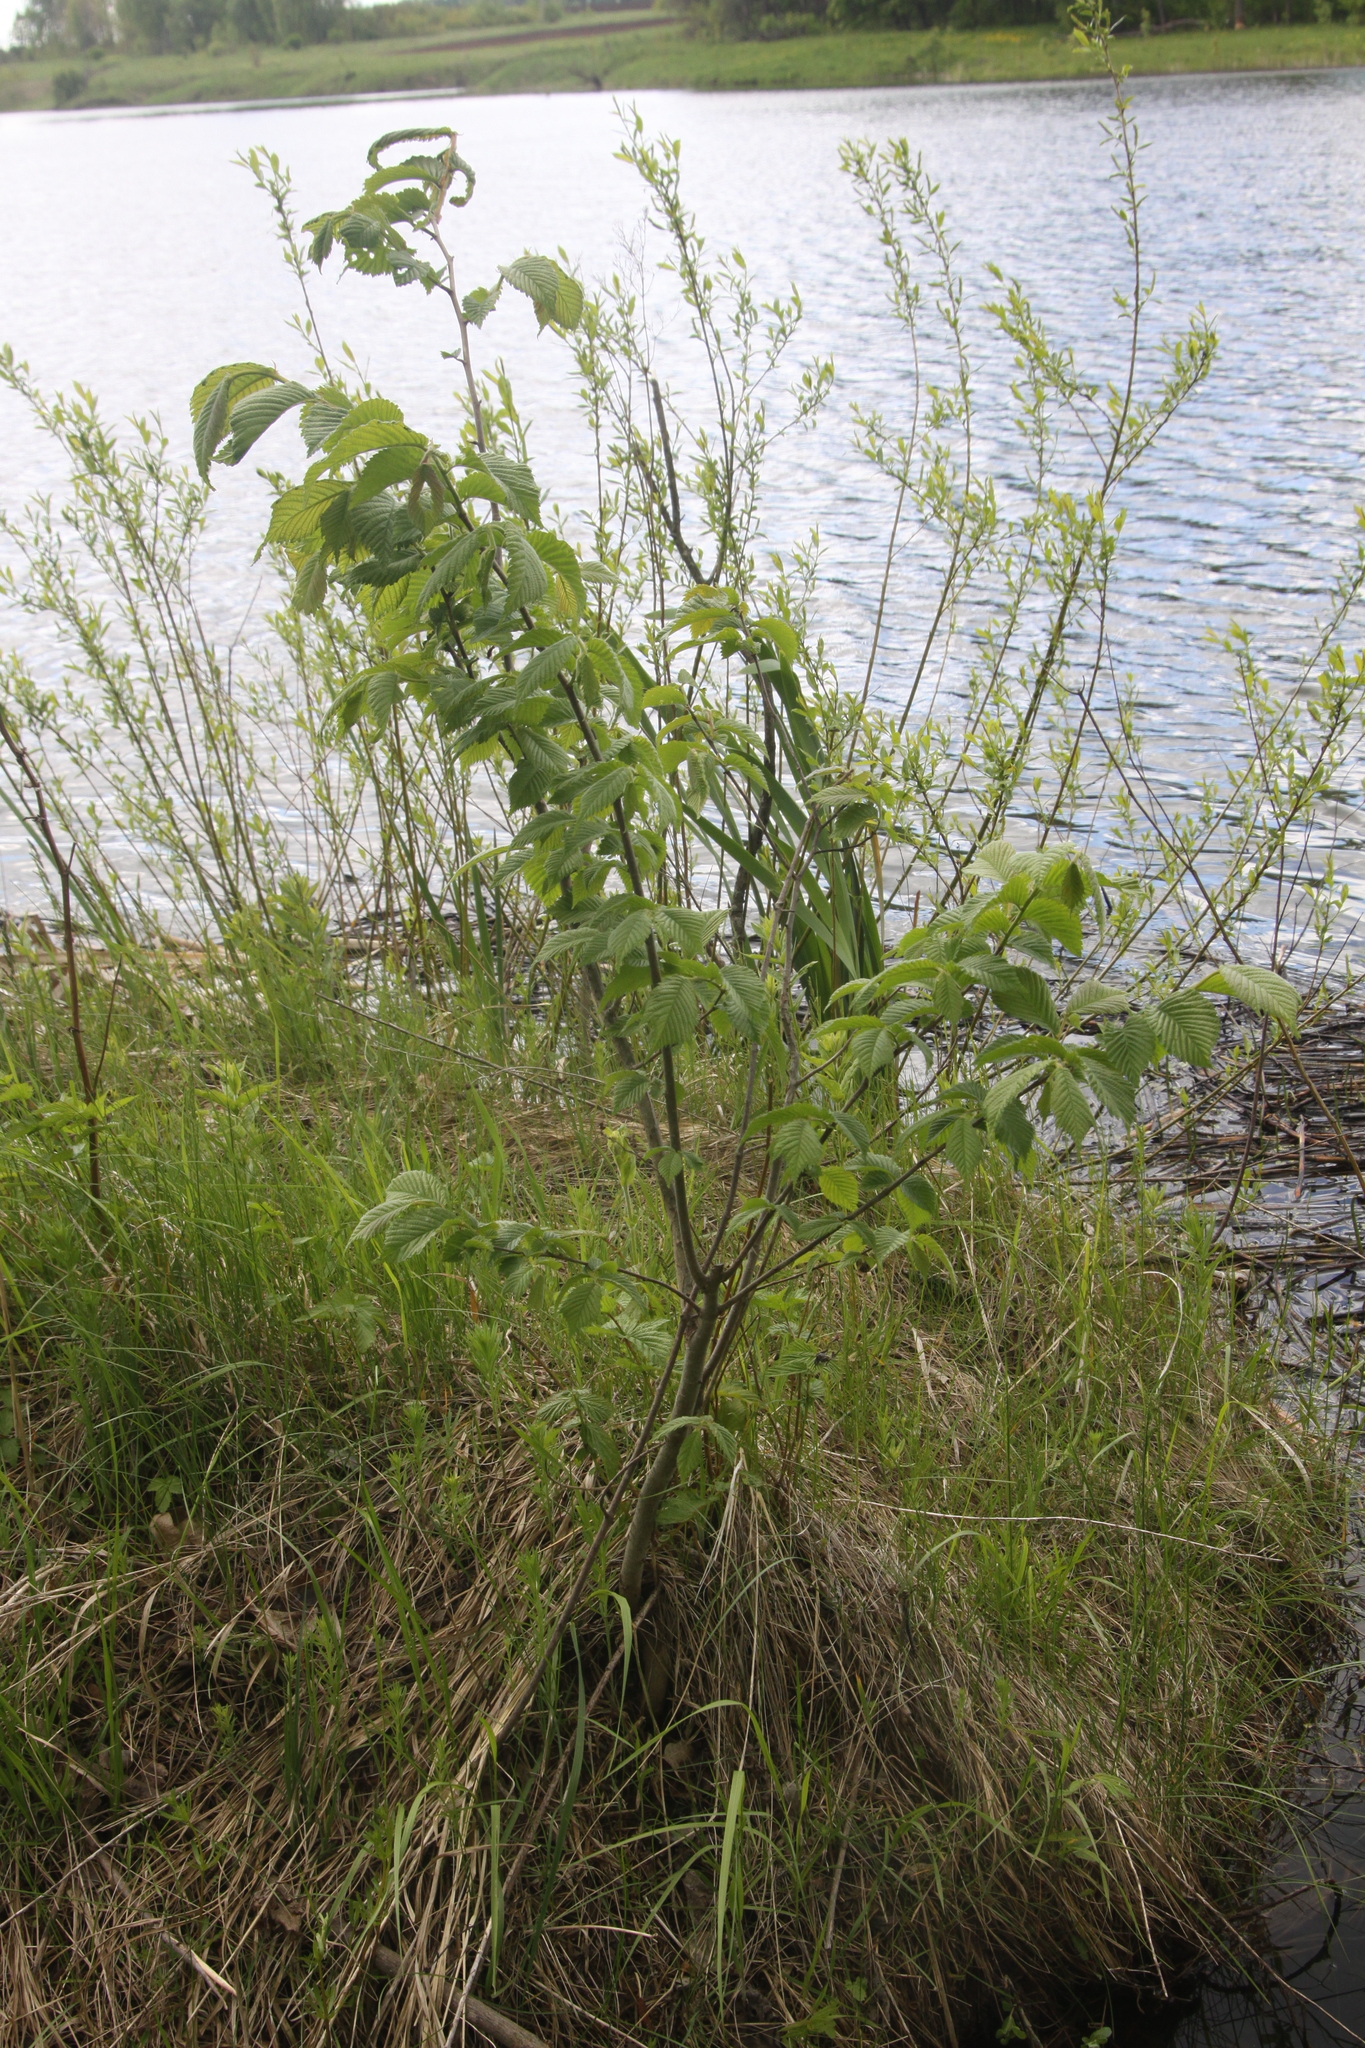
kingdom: Plantae
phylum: Tracheophyta
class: Magnoliopsida
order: Rosales
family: Ulmaceae
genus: Ulmus
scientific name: Ulmus glabra
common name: Wych elm
